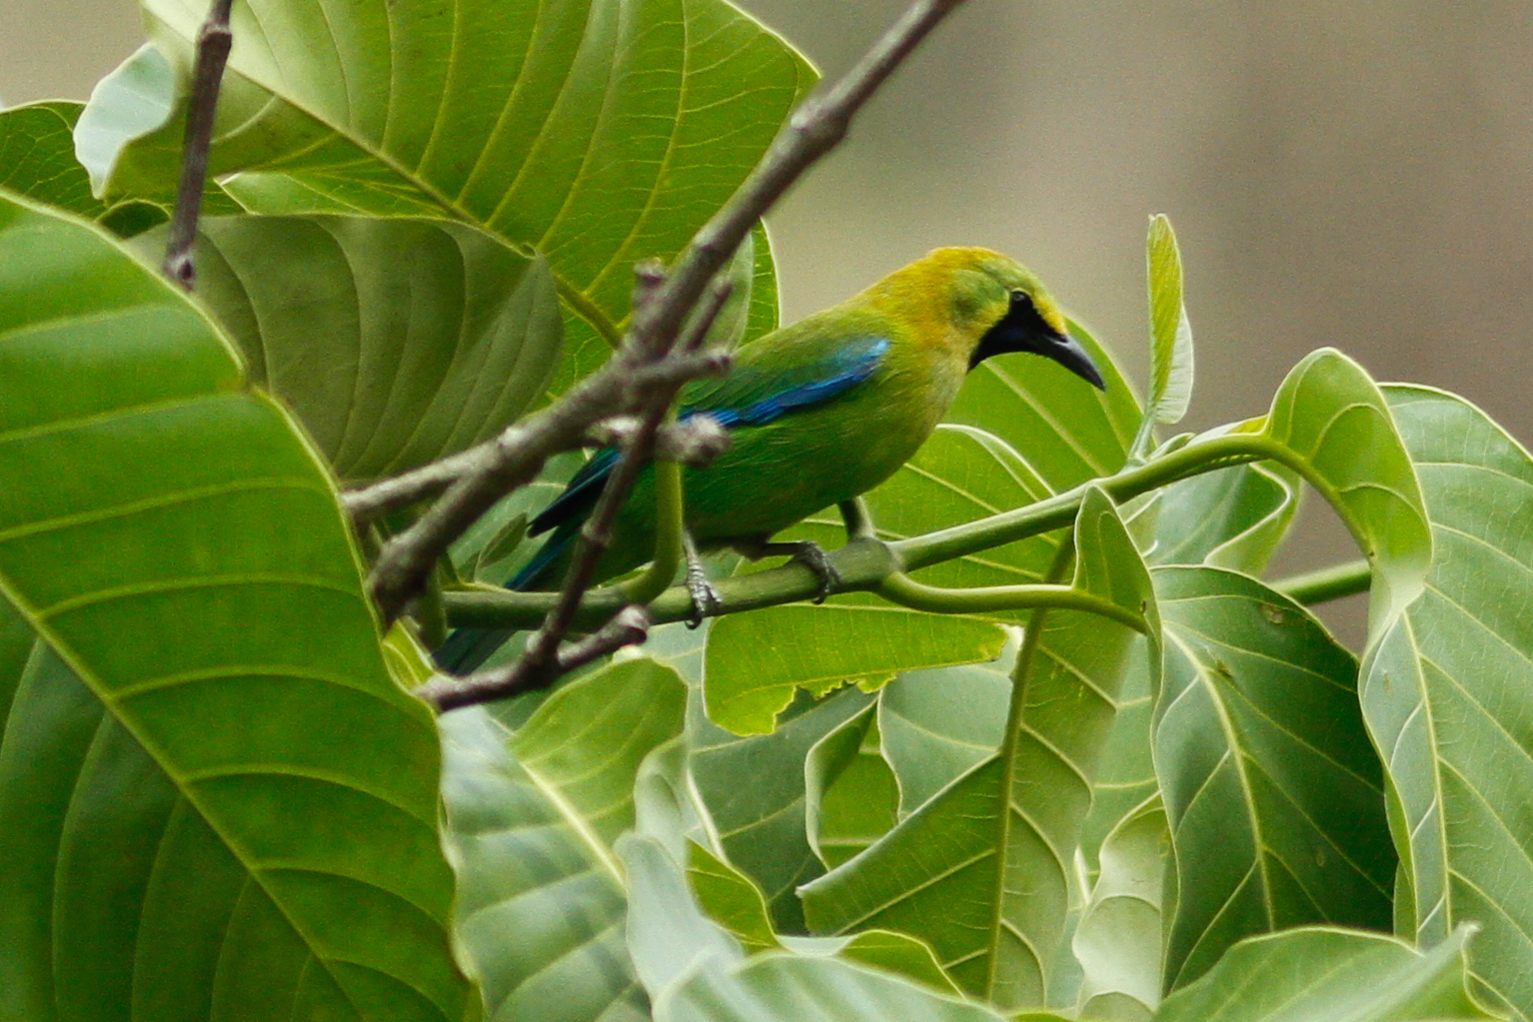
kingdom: Animalia
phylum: Chordata
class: Aves
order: Passeriformes
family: Chloropseidae
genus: Chloropsis
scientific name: Chloropsis moluccensis
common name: Blue-winged leafbird
